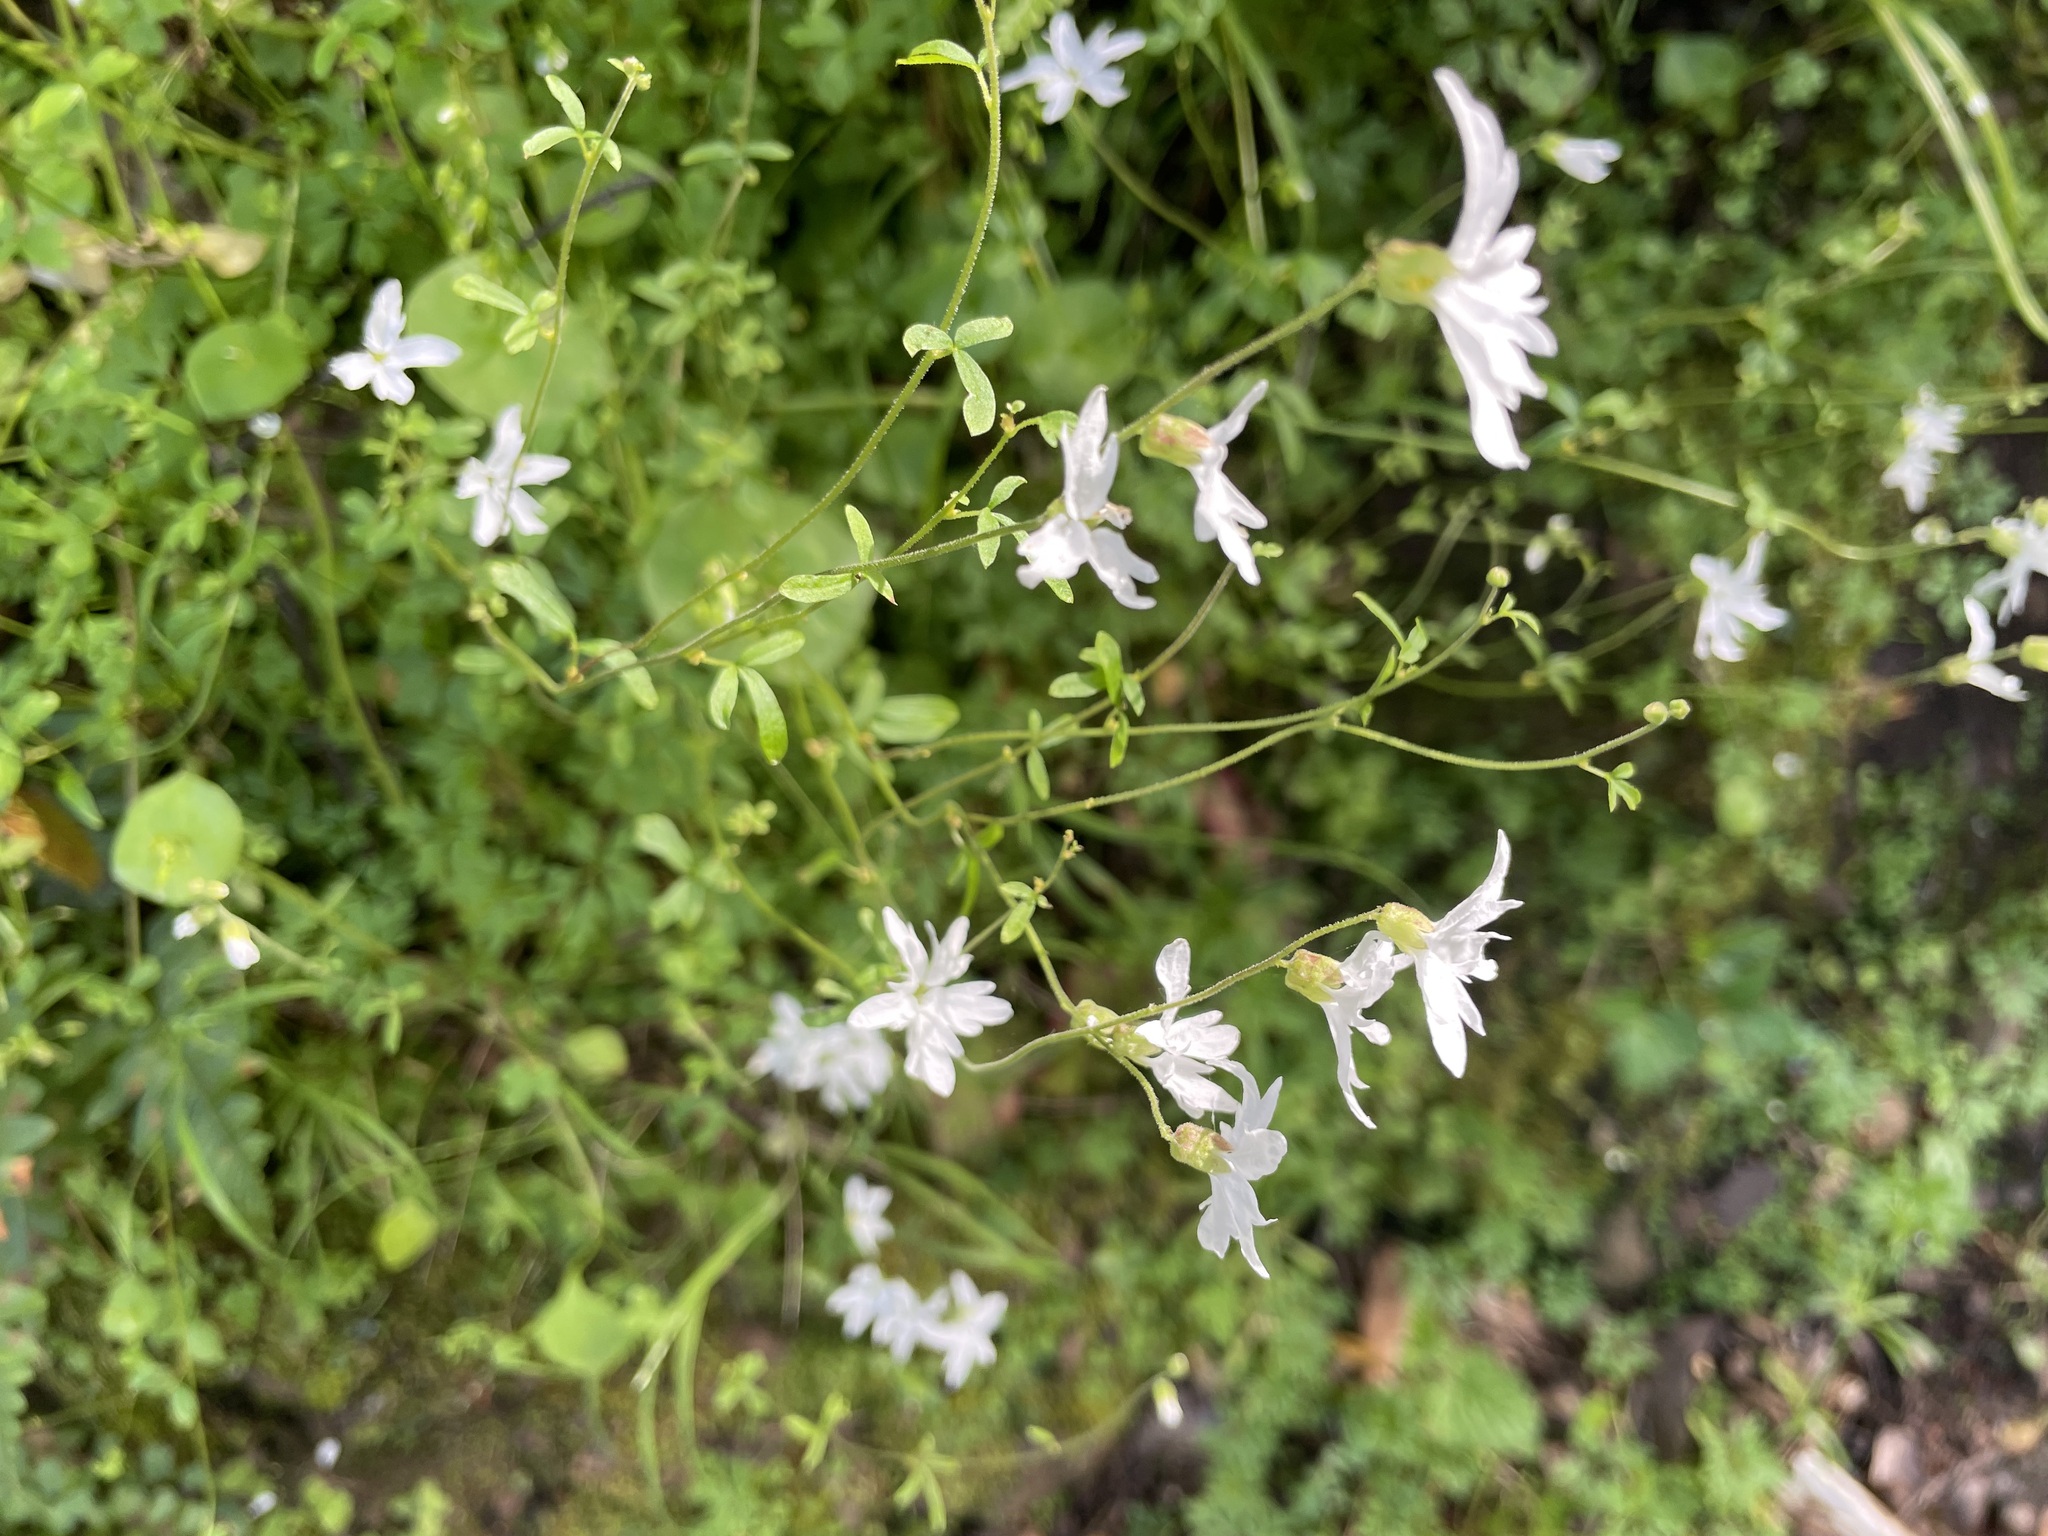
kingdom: Plantae
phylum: Tracheophyta
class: Magnoliopsida
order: Saxifragales
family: Saxifragaceae
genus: Lithophragma
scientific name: Lithophragma heterophyllum
